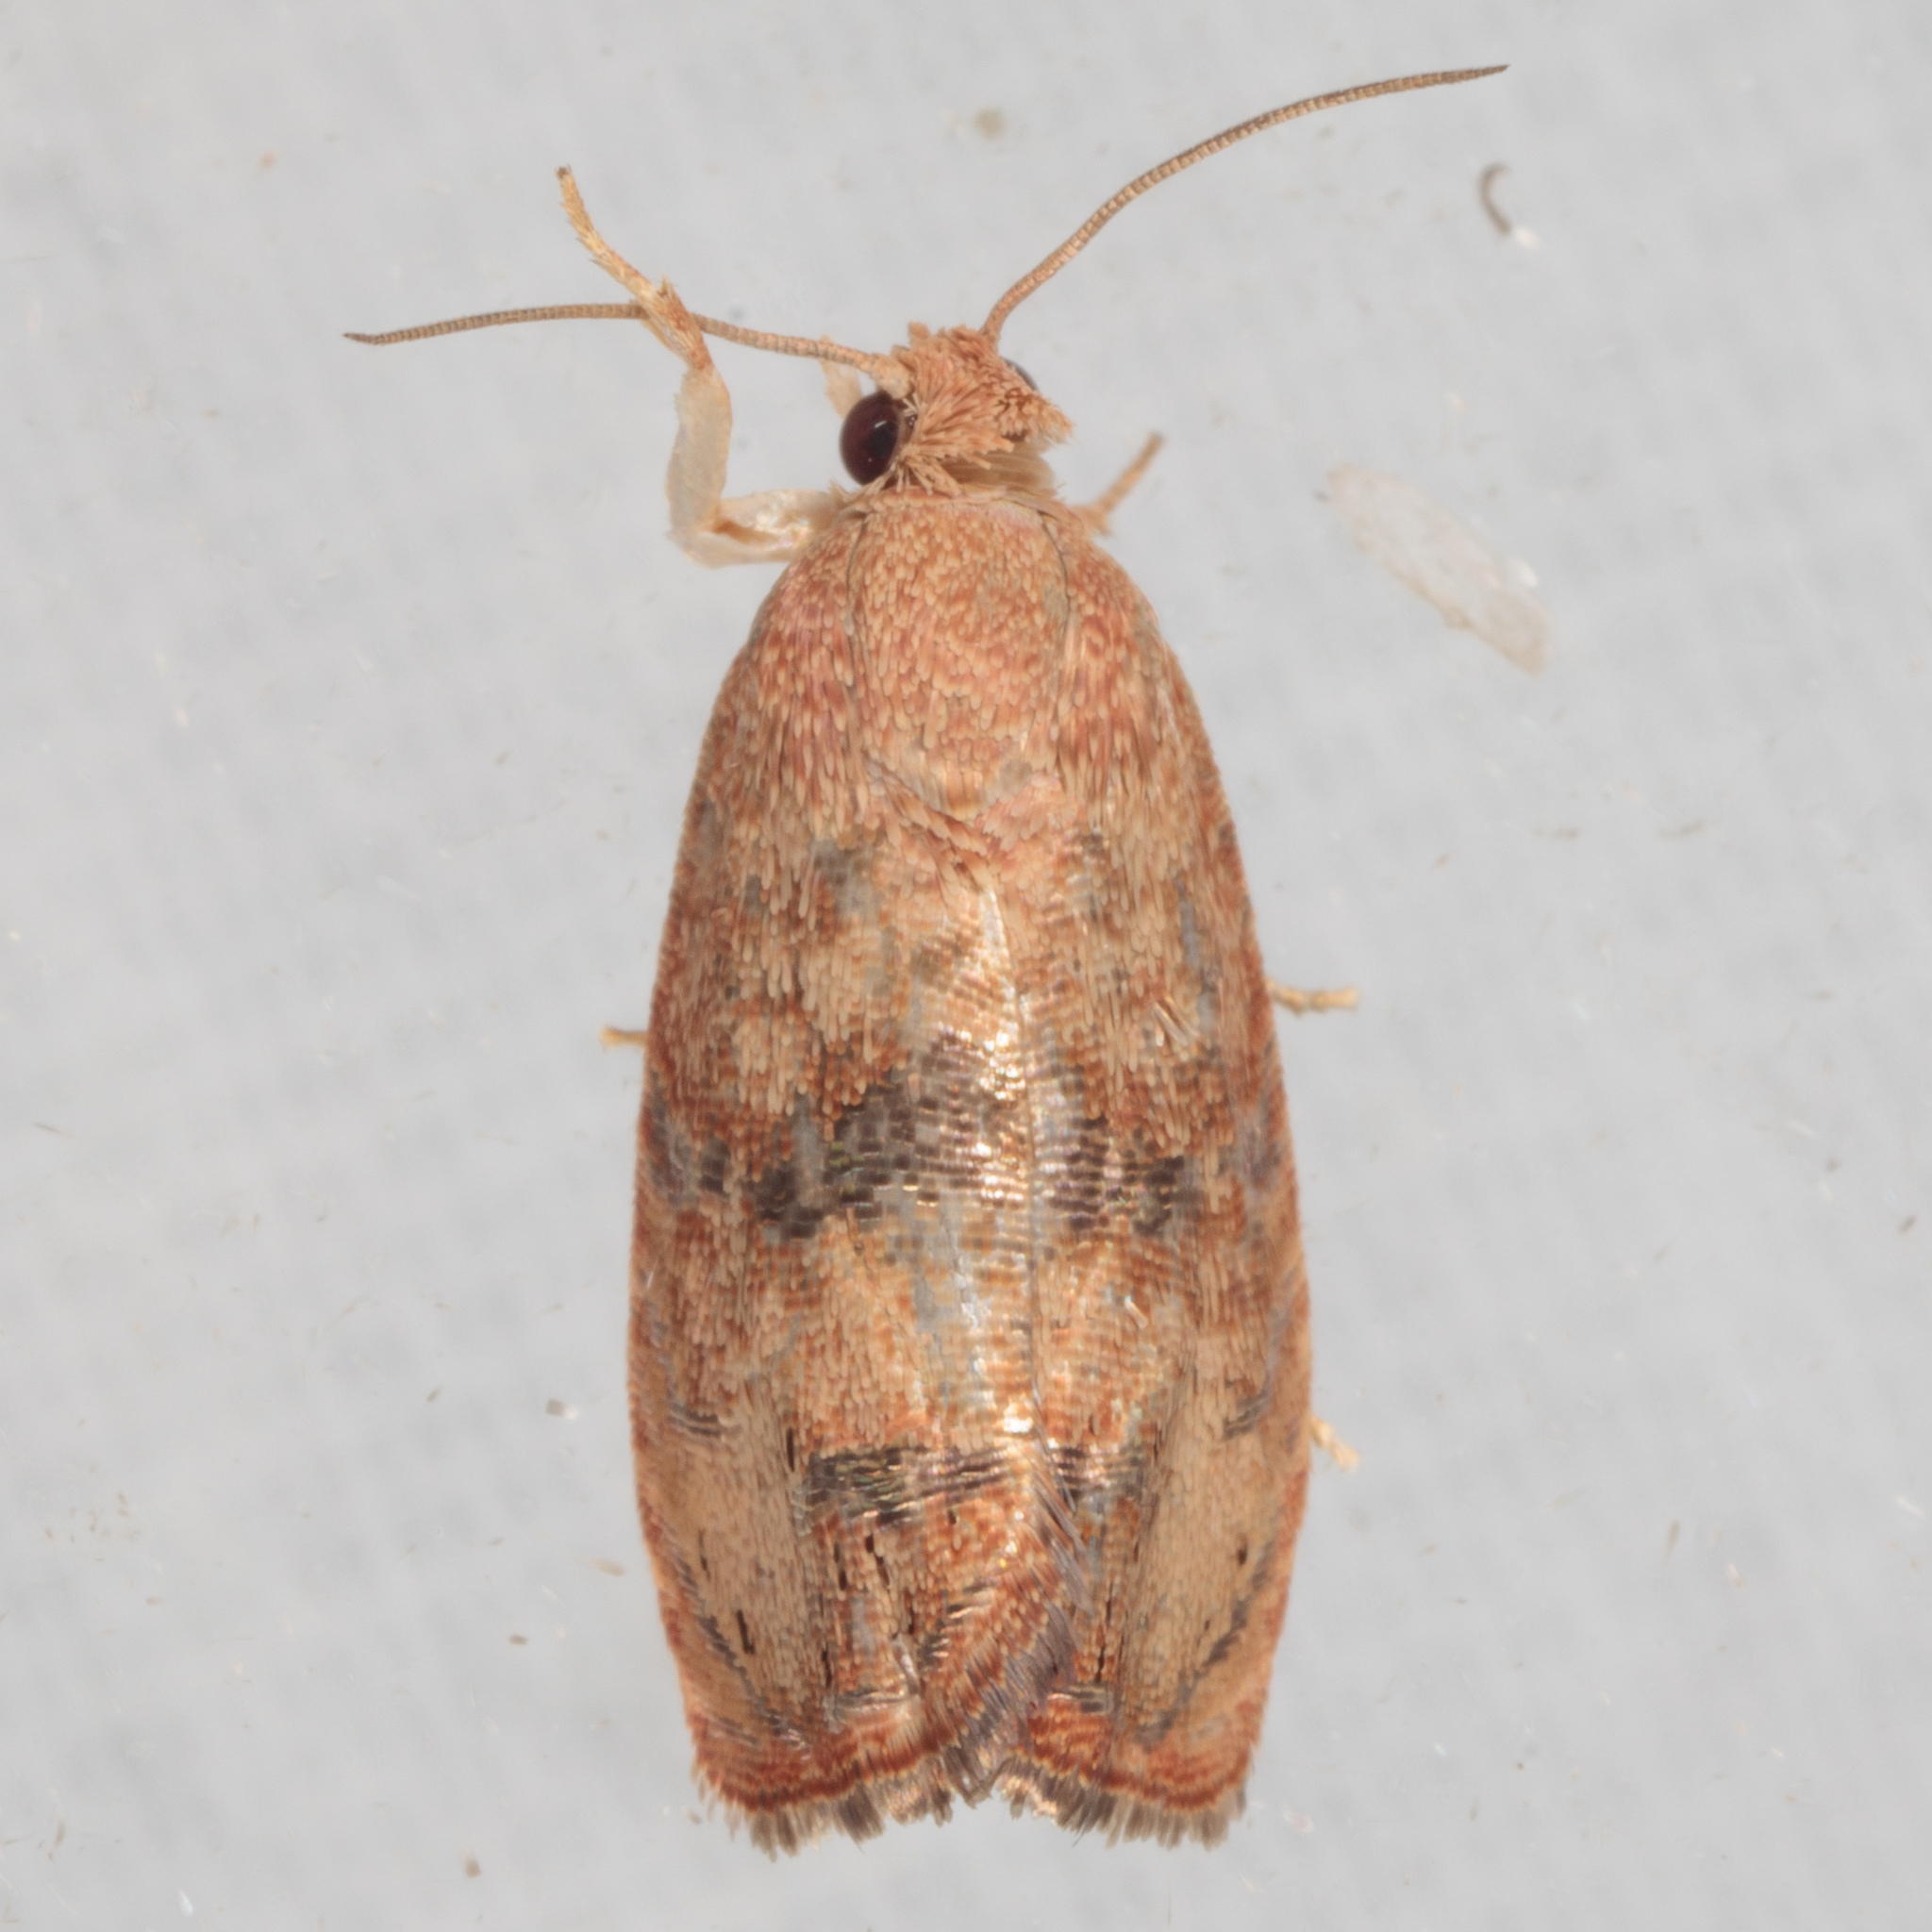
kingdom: Animalia
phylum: Arthropoda
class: Insecta
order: Lepidoptera
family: Tortricidae
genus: Cydia
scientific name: Cydia latiferreana
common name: Filbertworm moth
